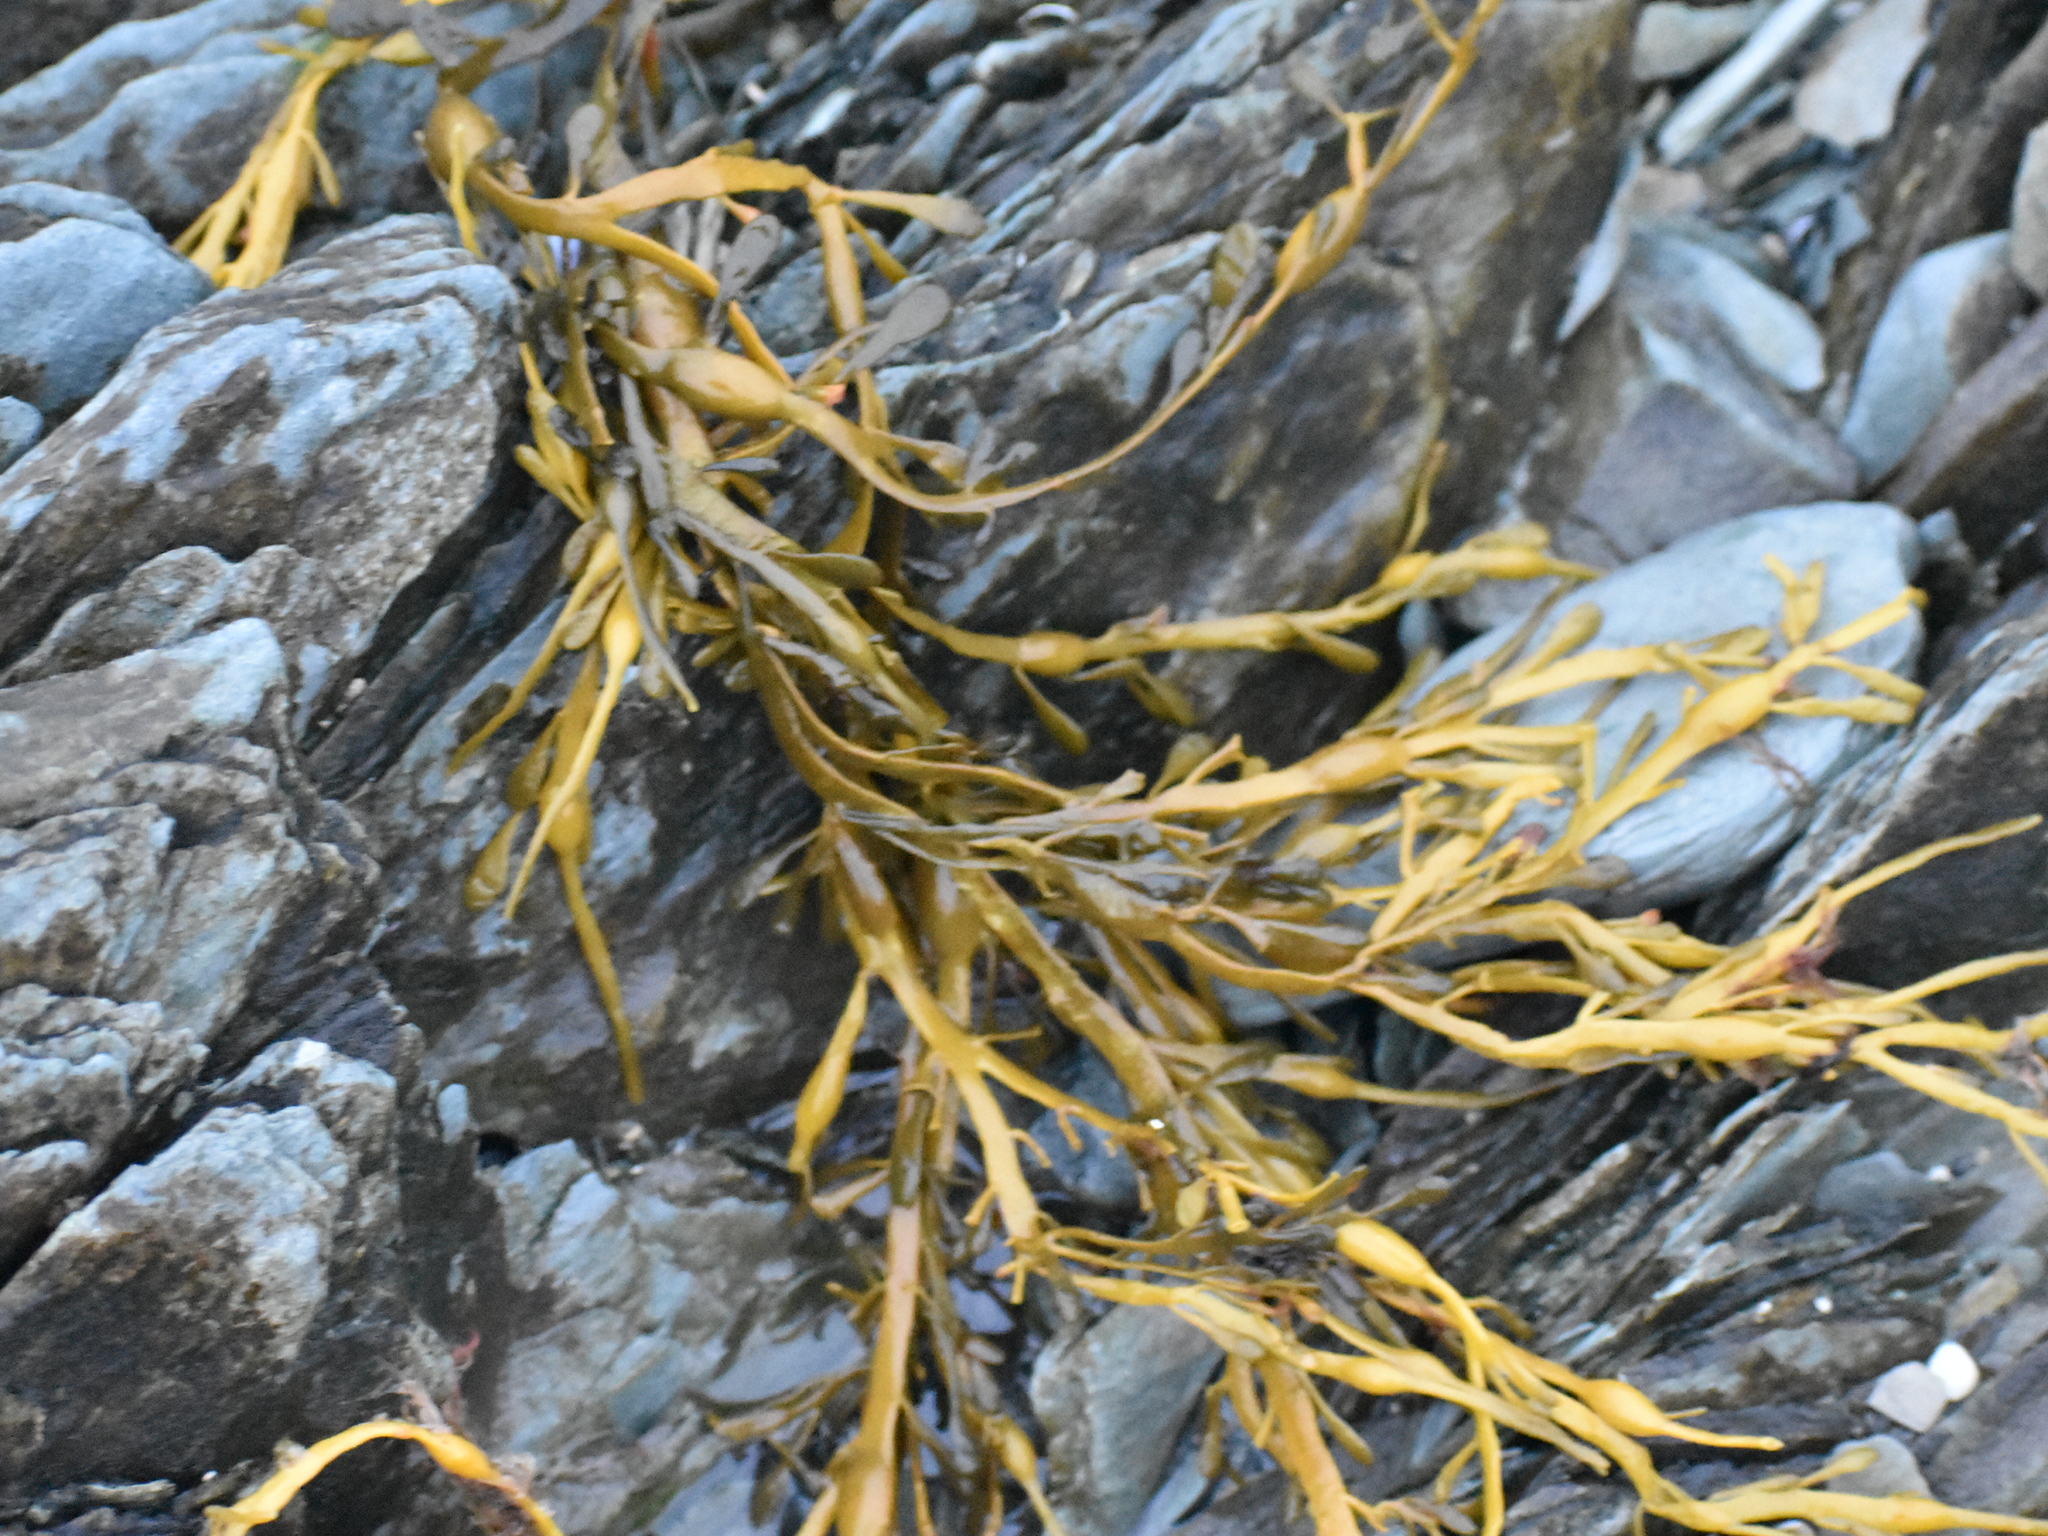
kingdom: Chromista
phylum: Ochrophyta
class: Phaeophyceae
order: Fucales
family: Fucaceae
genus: Ascophyllum
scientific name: Ascophyllum nodosum
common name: Knotted wrack
